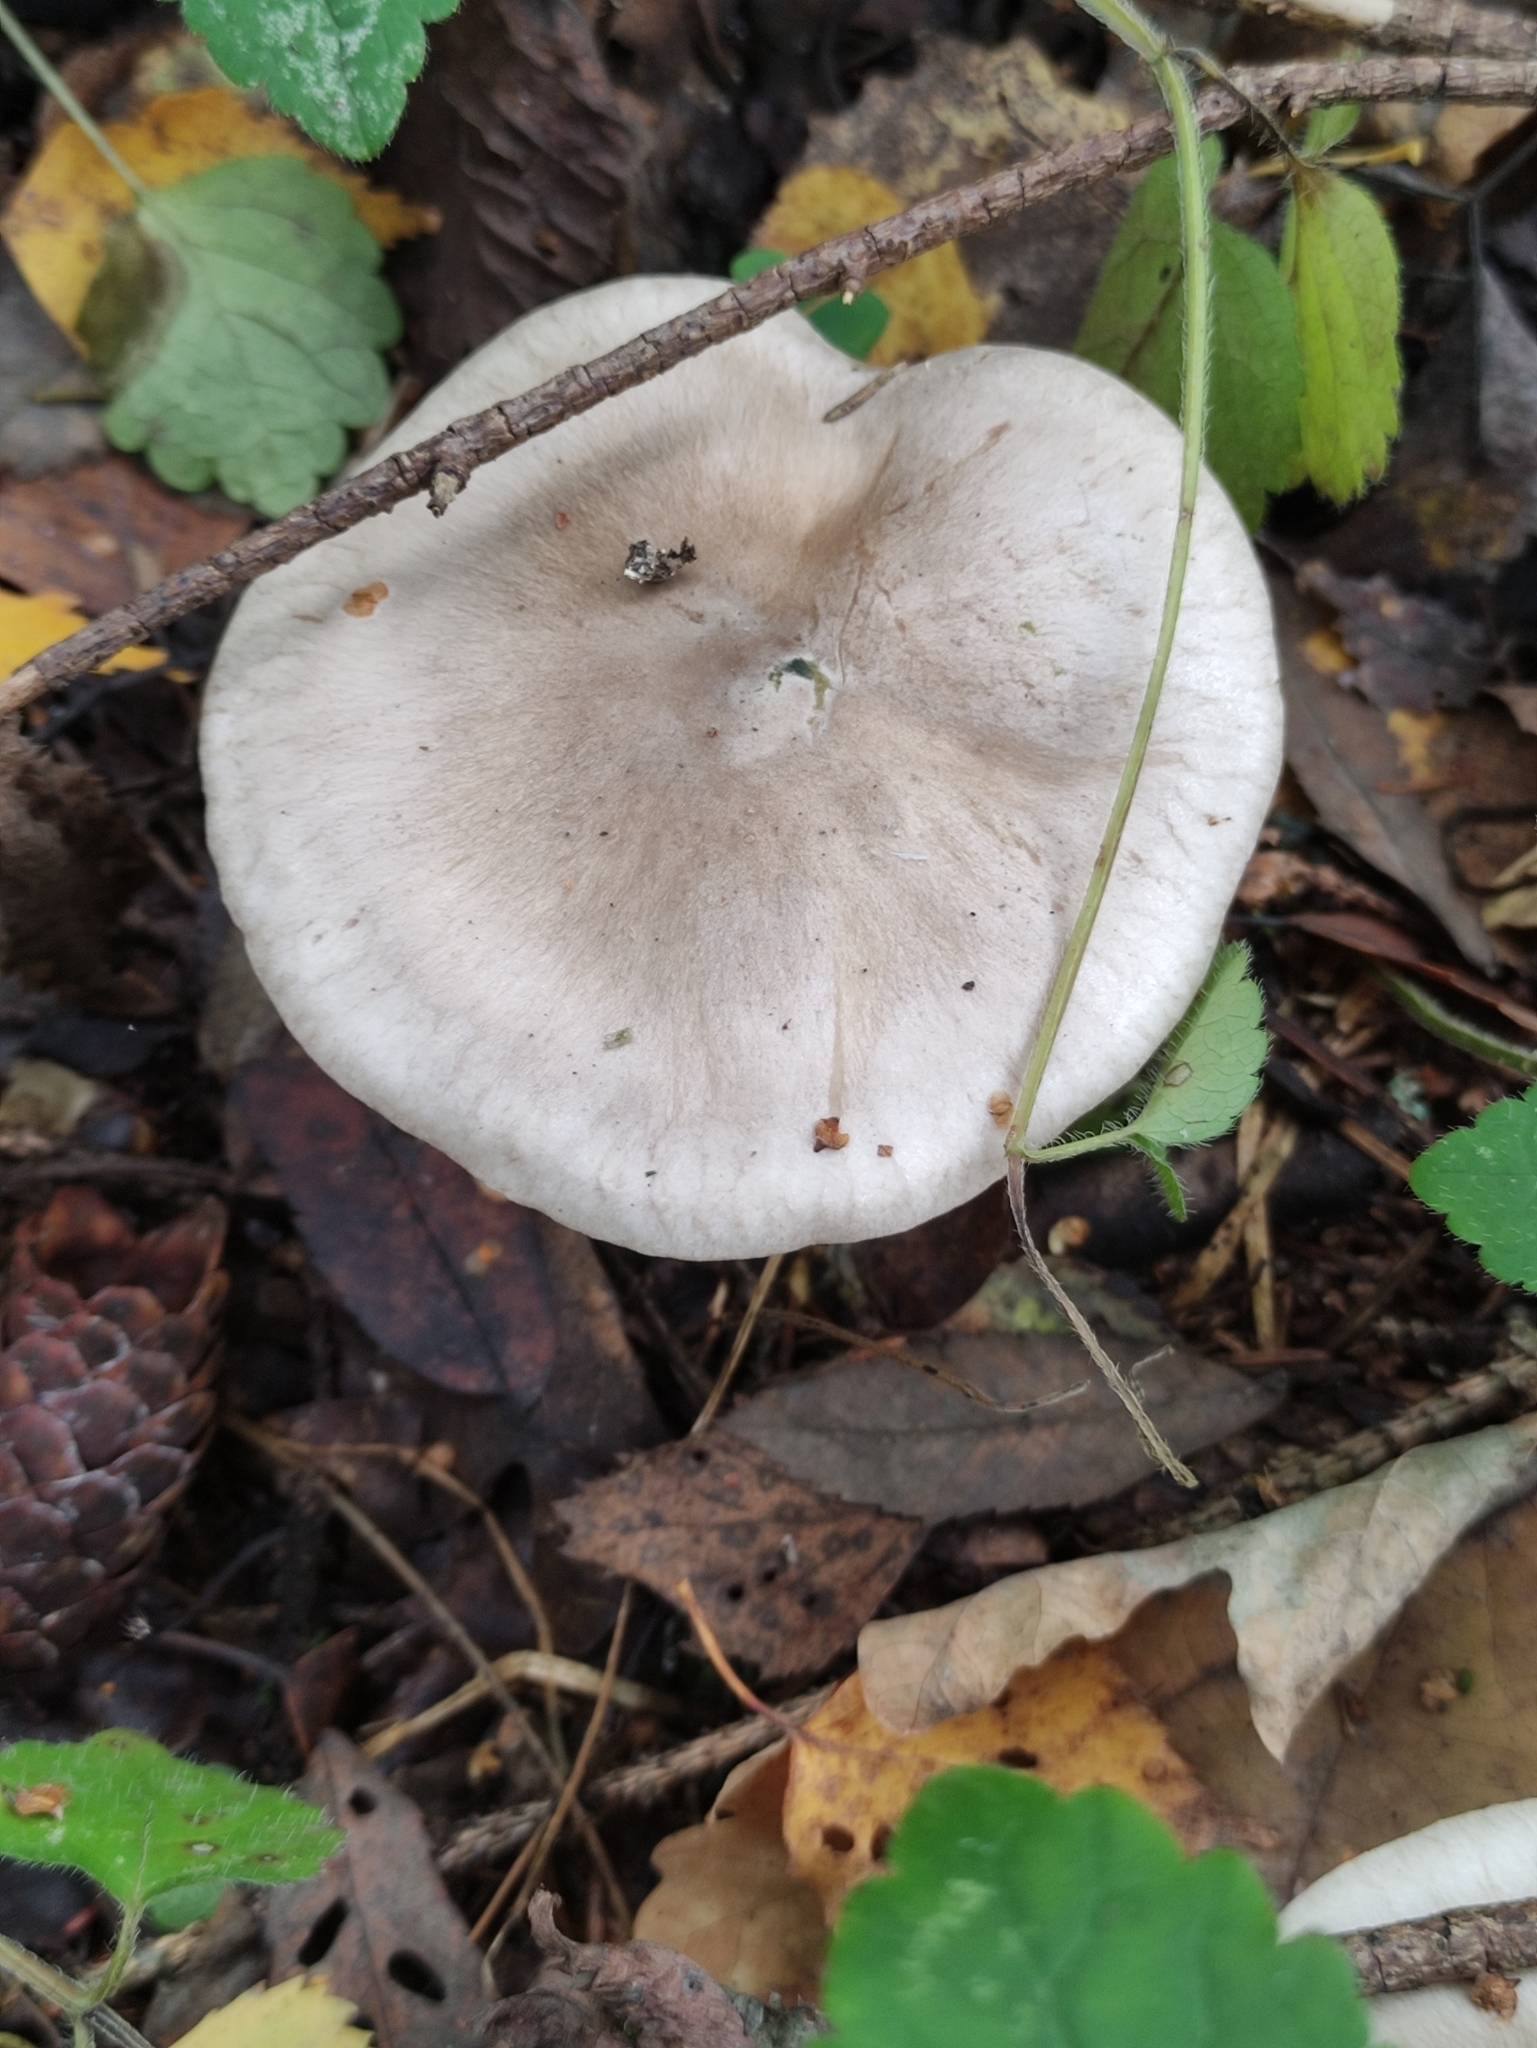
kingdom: Fungi
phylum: Basidiomycota
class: Agaricomycetes
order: Agaricales
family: Tricholomataceae
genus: Clitocybe
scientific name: Clitocybe nebularis
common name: Clouded agaric
